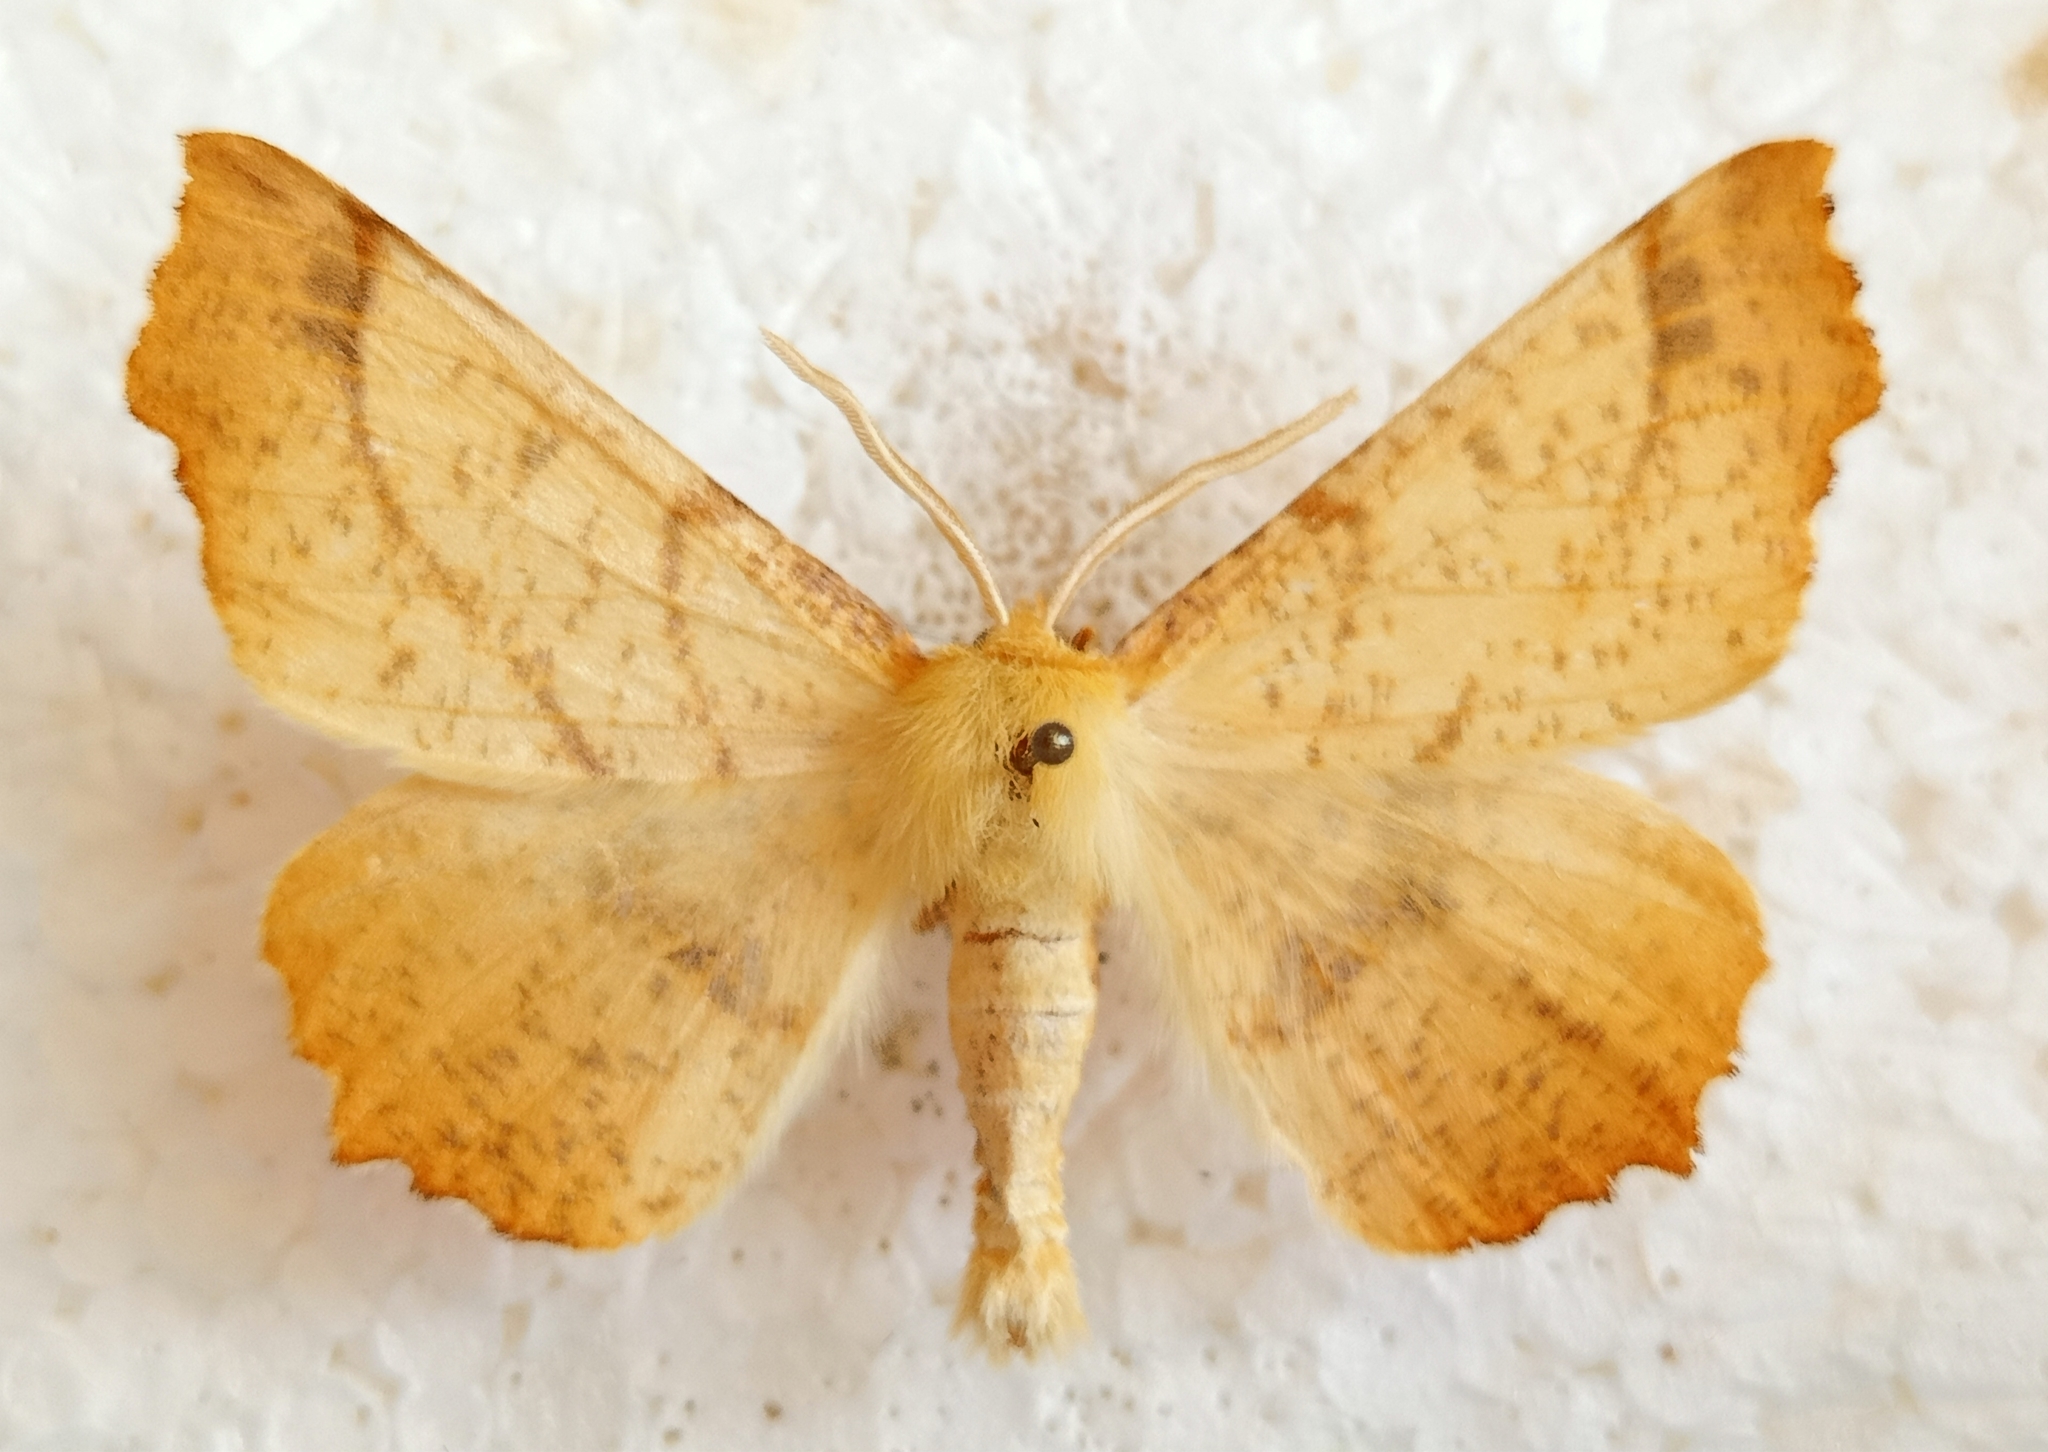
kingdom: Animalia
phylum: Arthropoda
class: Insecta
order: Lepidoptera
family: Geometridae
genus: Ennomos
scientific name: Ennomos autumnaria
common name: Large thorn
